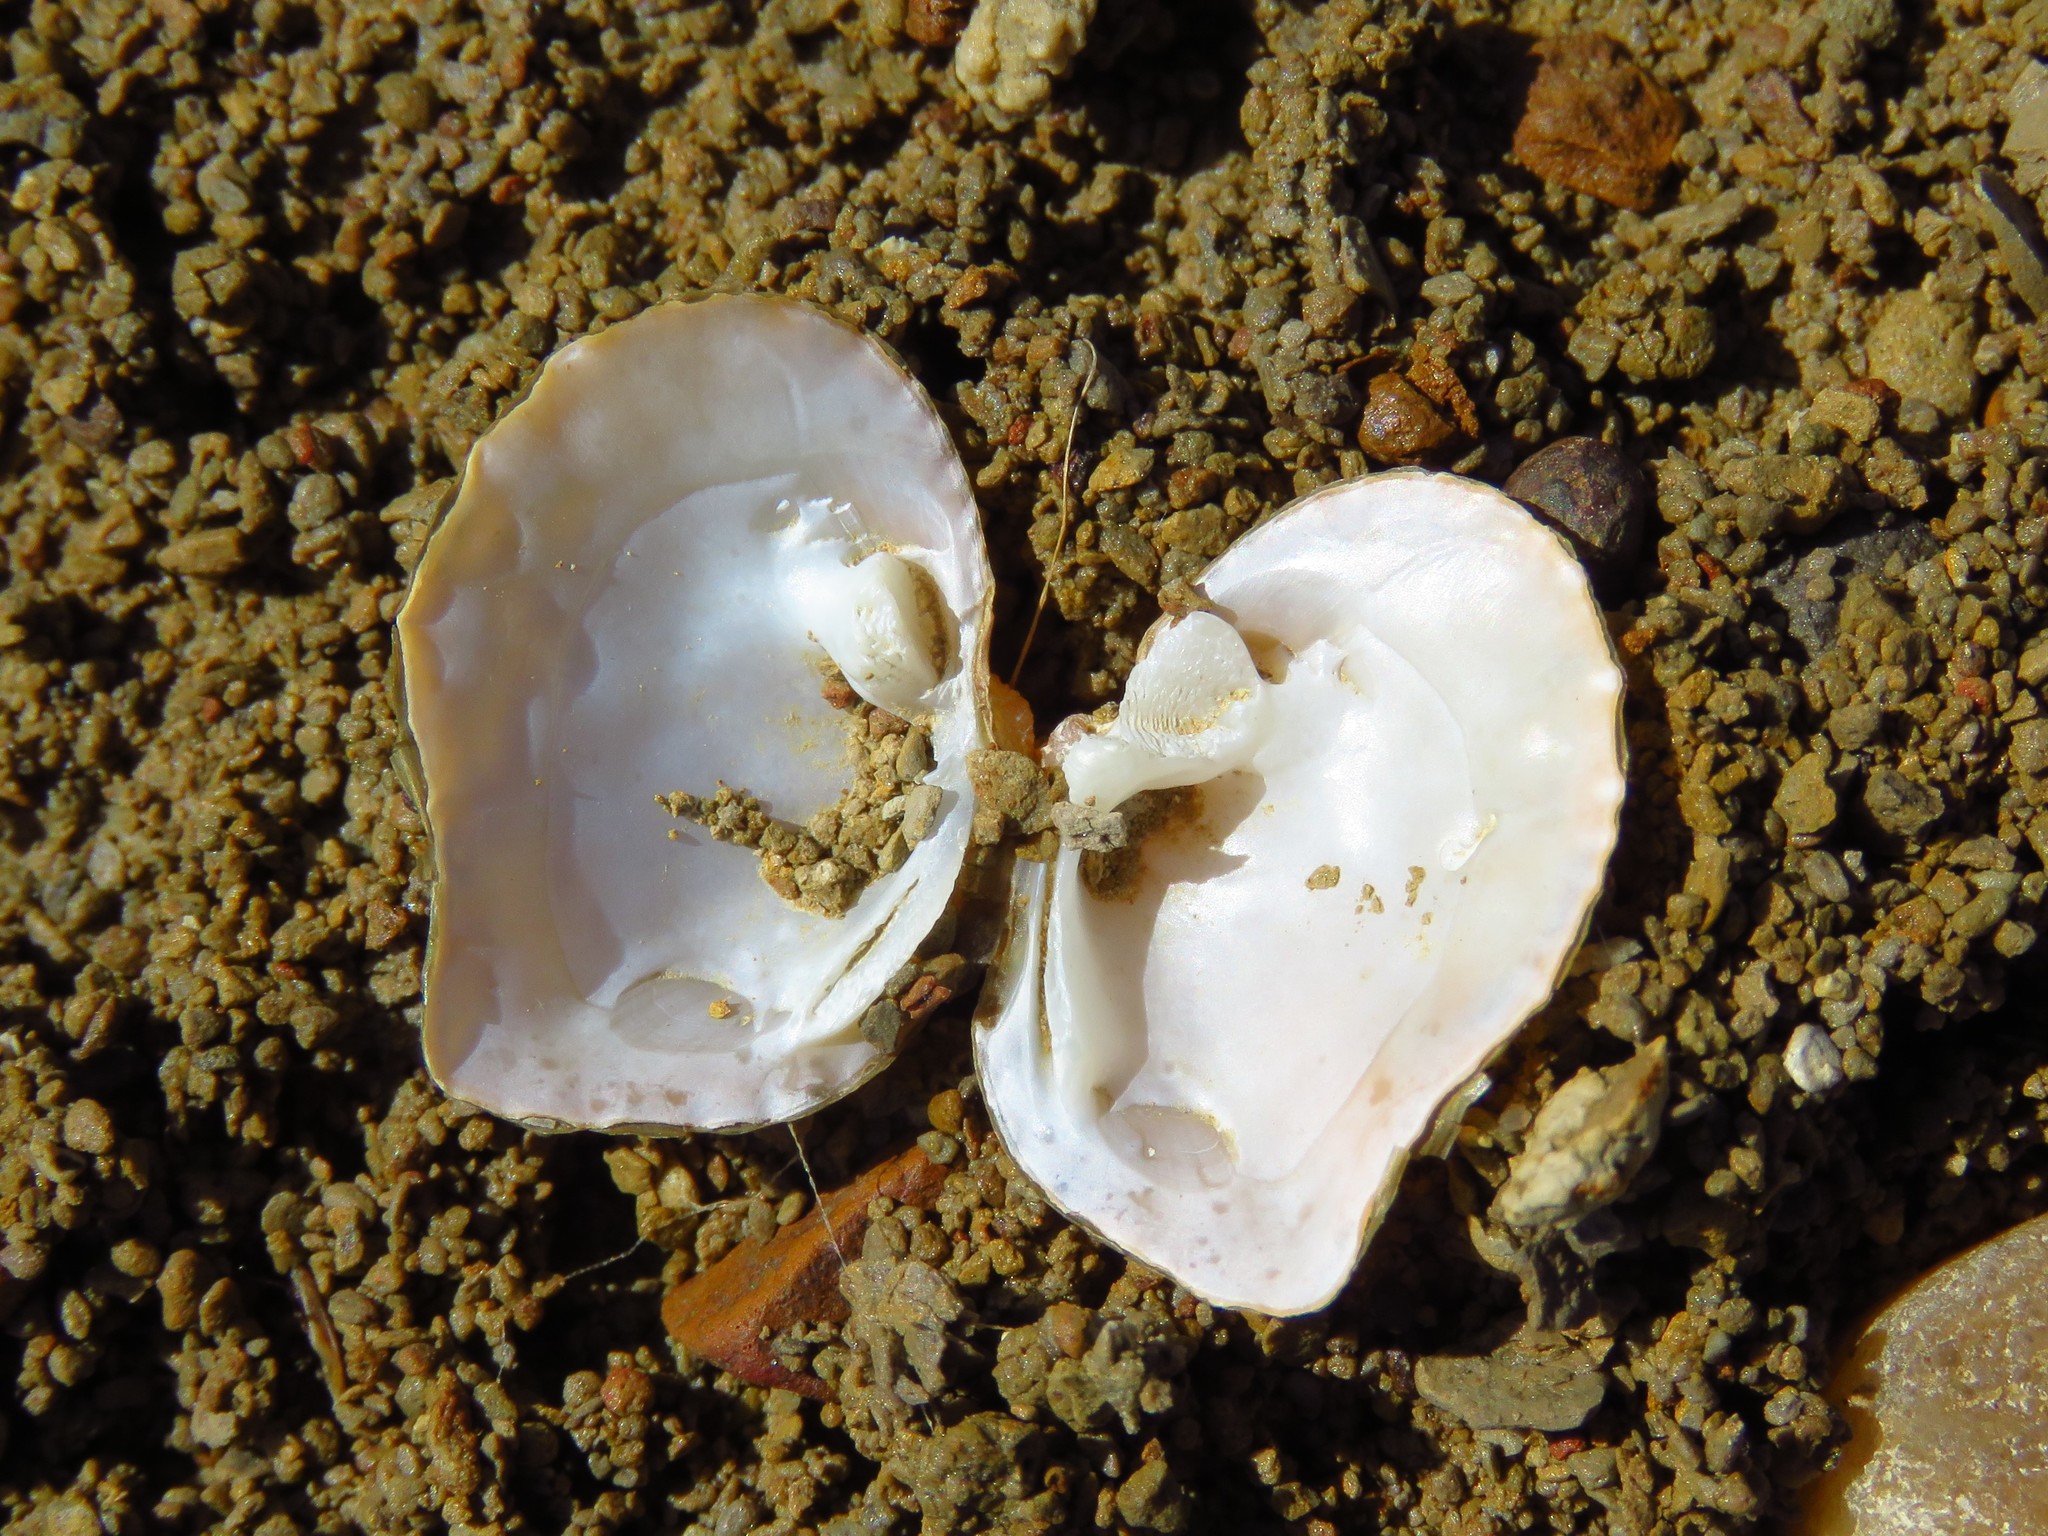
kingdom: Animalia
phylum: Mollusca
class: Bivalvia
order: Unionida
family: Unionidae
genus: Quadrula
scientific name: Quadrula quadrula
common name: Mapleleaf
